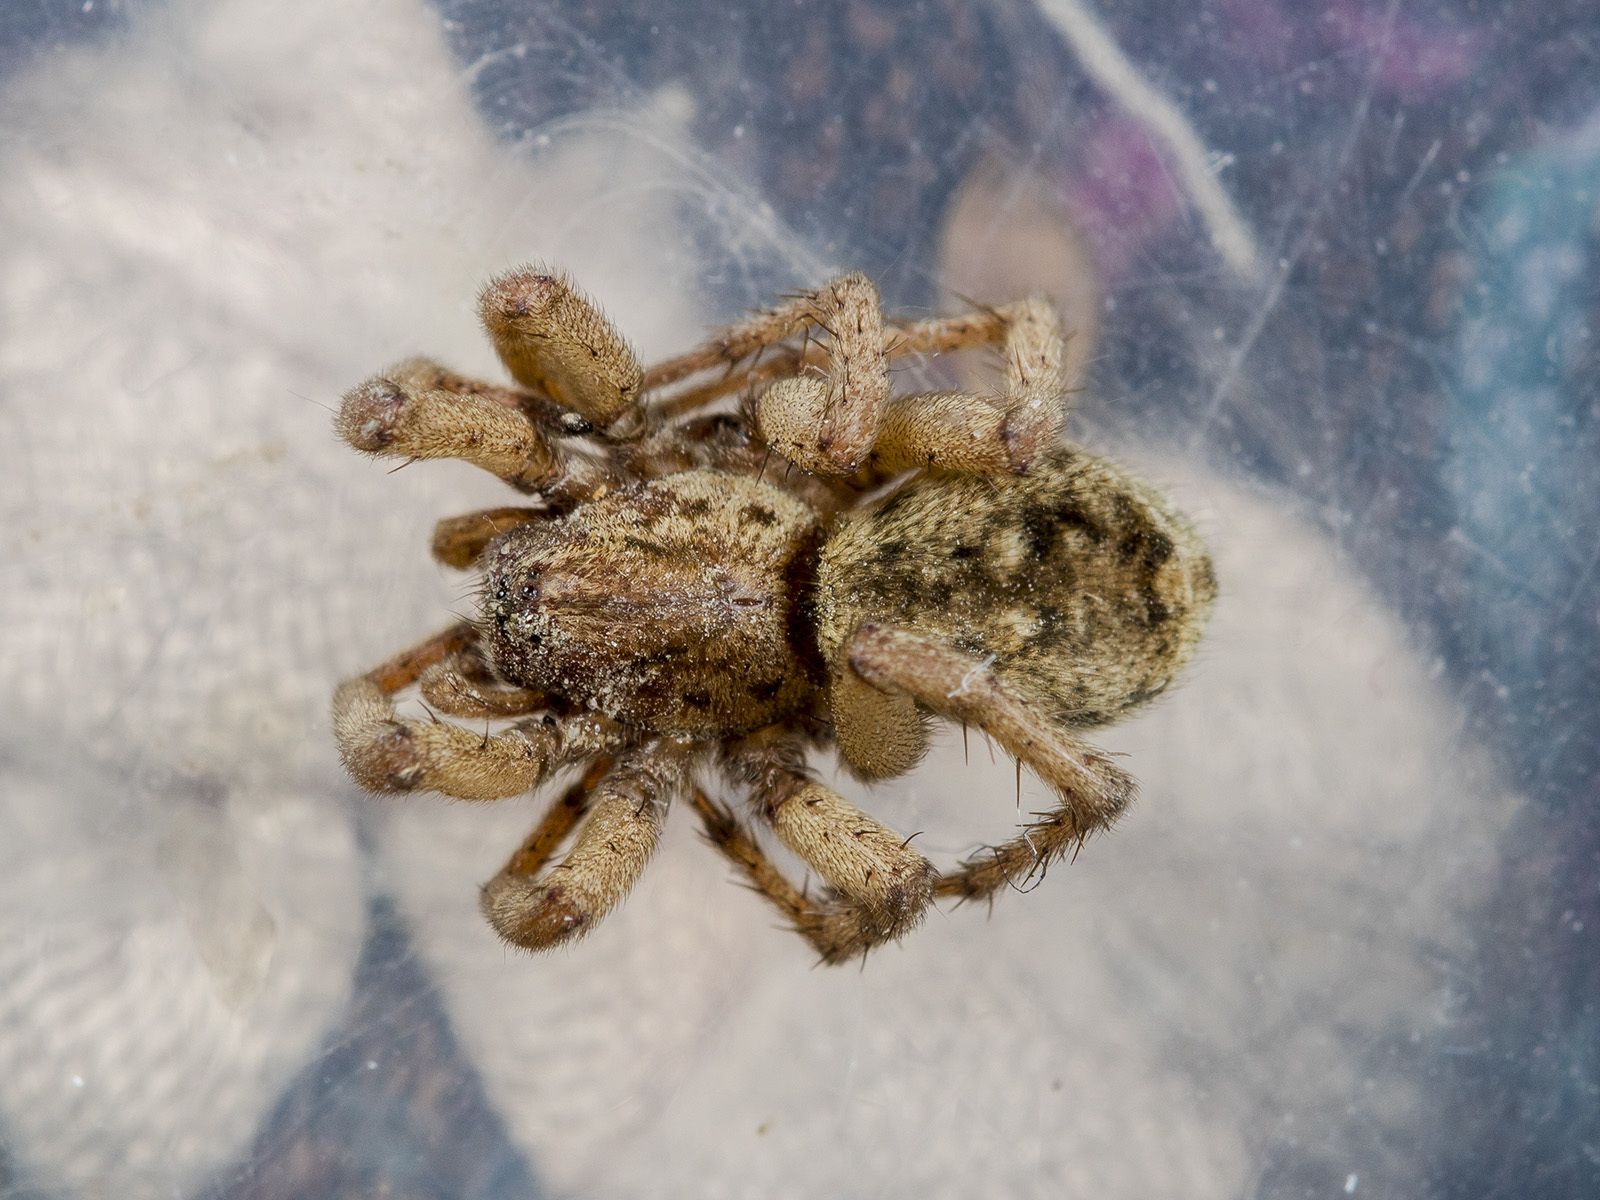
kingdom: Animalia
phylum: Arthropoda
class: Arachnida
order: Araneae
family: Gnaphosidae
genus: Berlandina
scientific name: Berlandina plumalis
